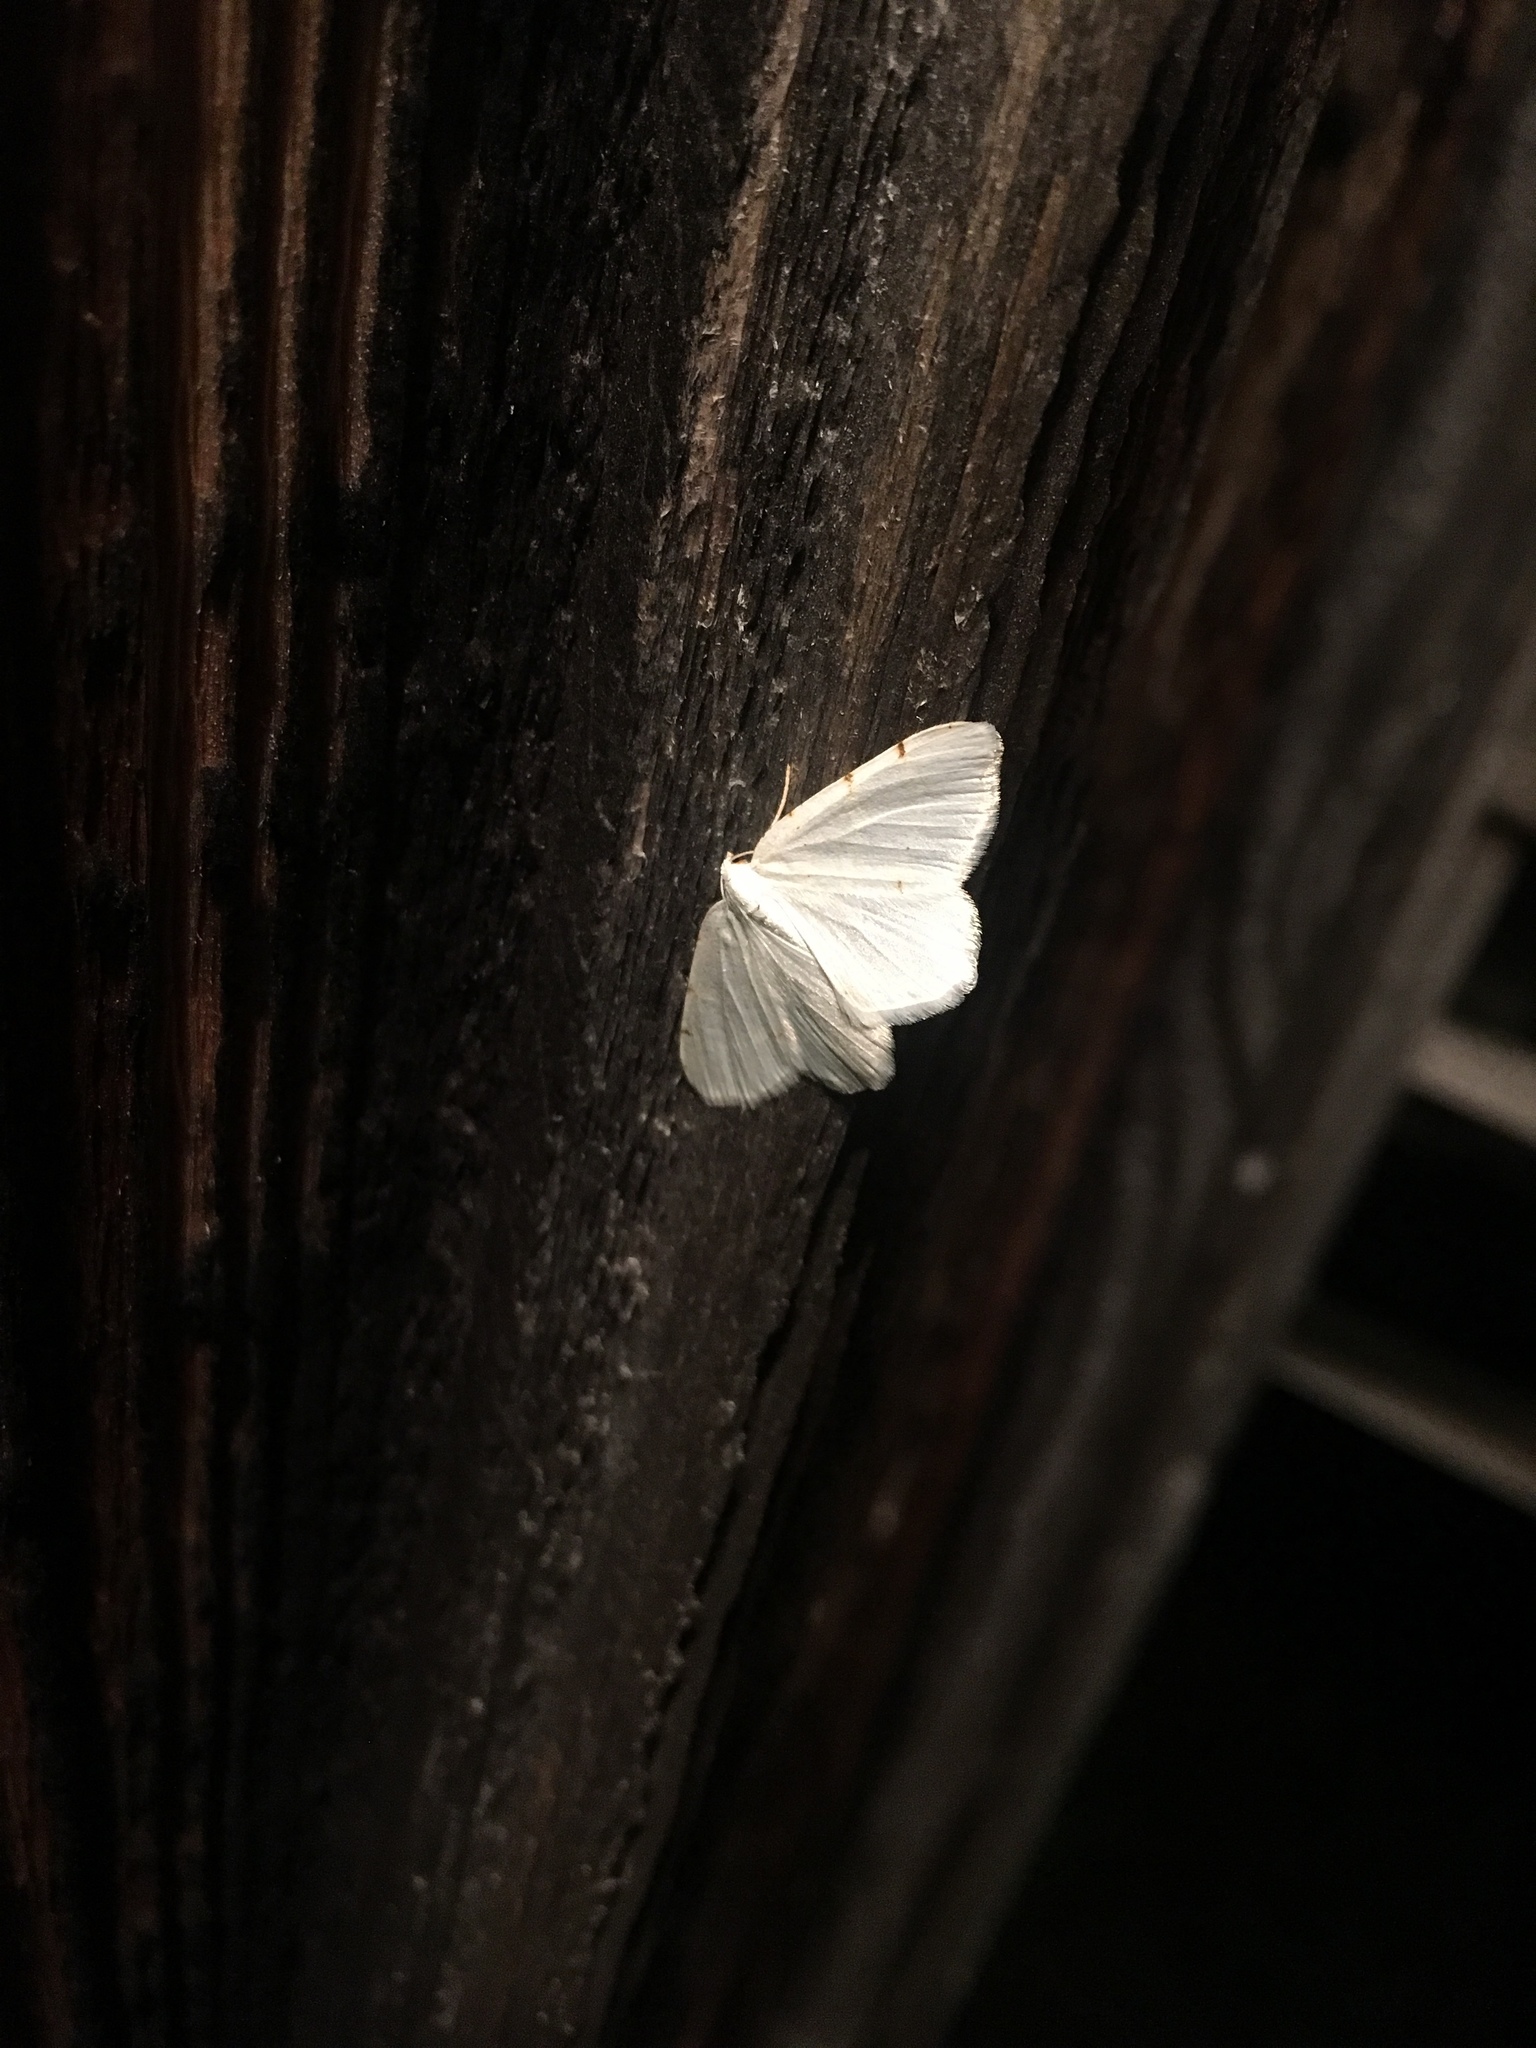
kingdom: Animalia
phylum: Arthropoda
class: Insecta
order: Lepidoptera
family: Geometridae
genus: Macaria
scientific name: Macaria pustularia
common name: Lesser maple spanworm moth
